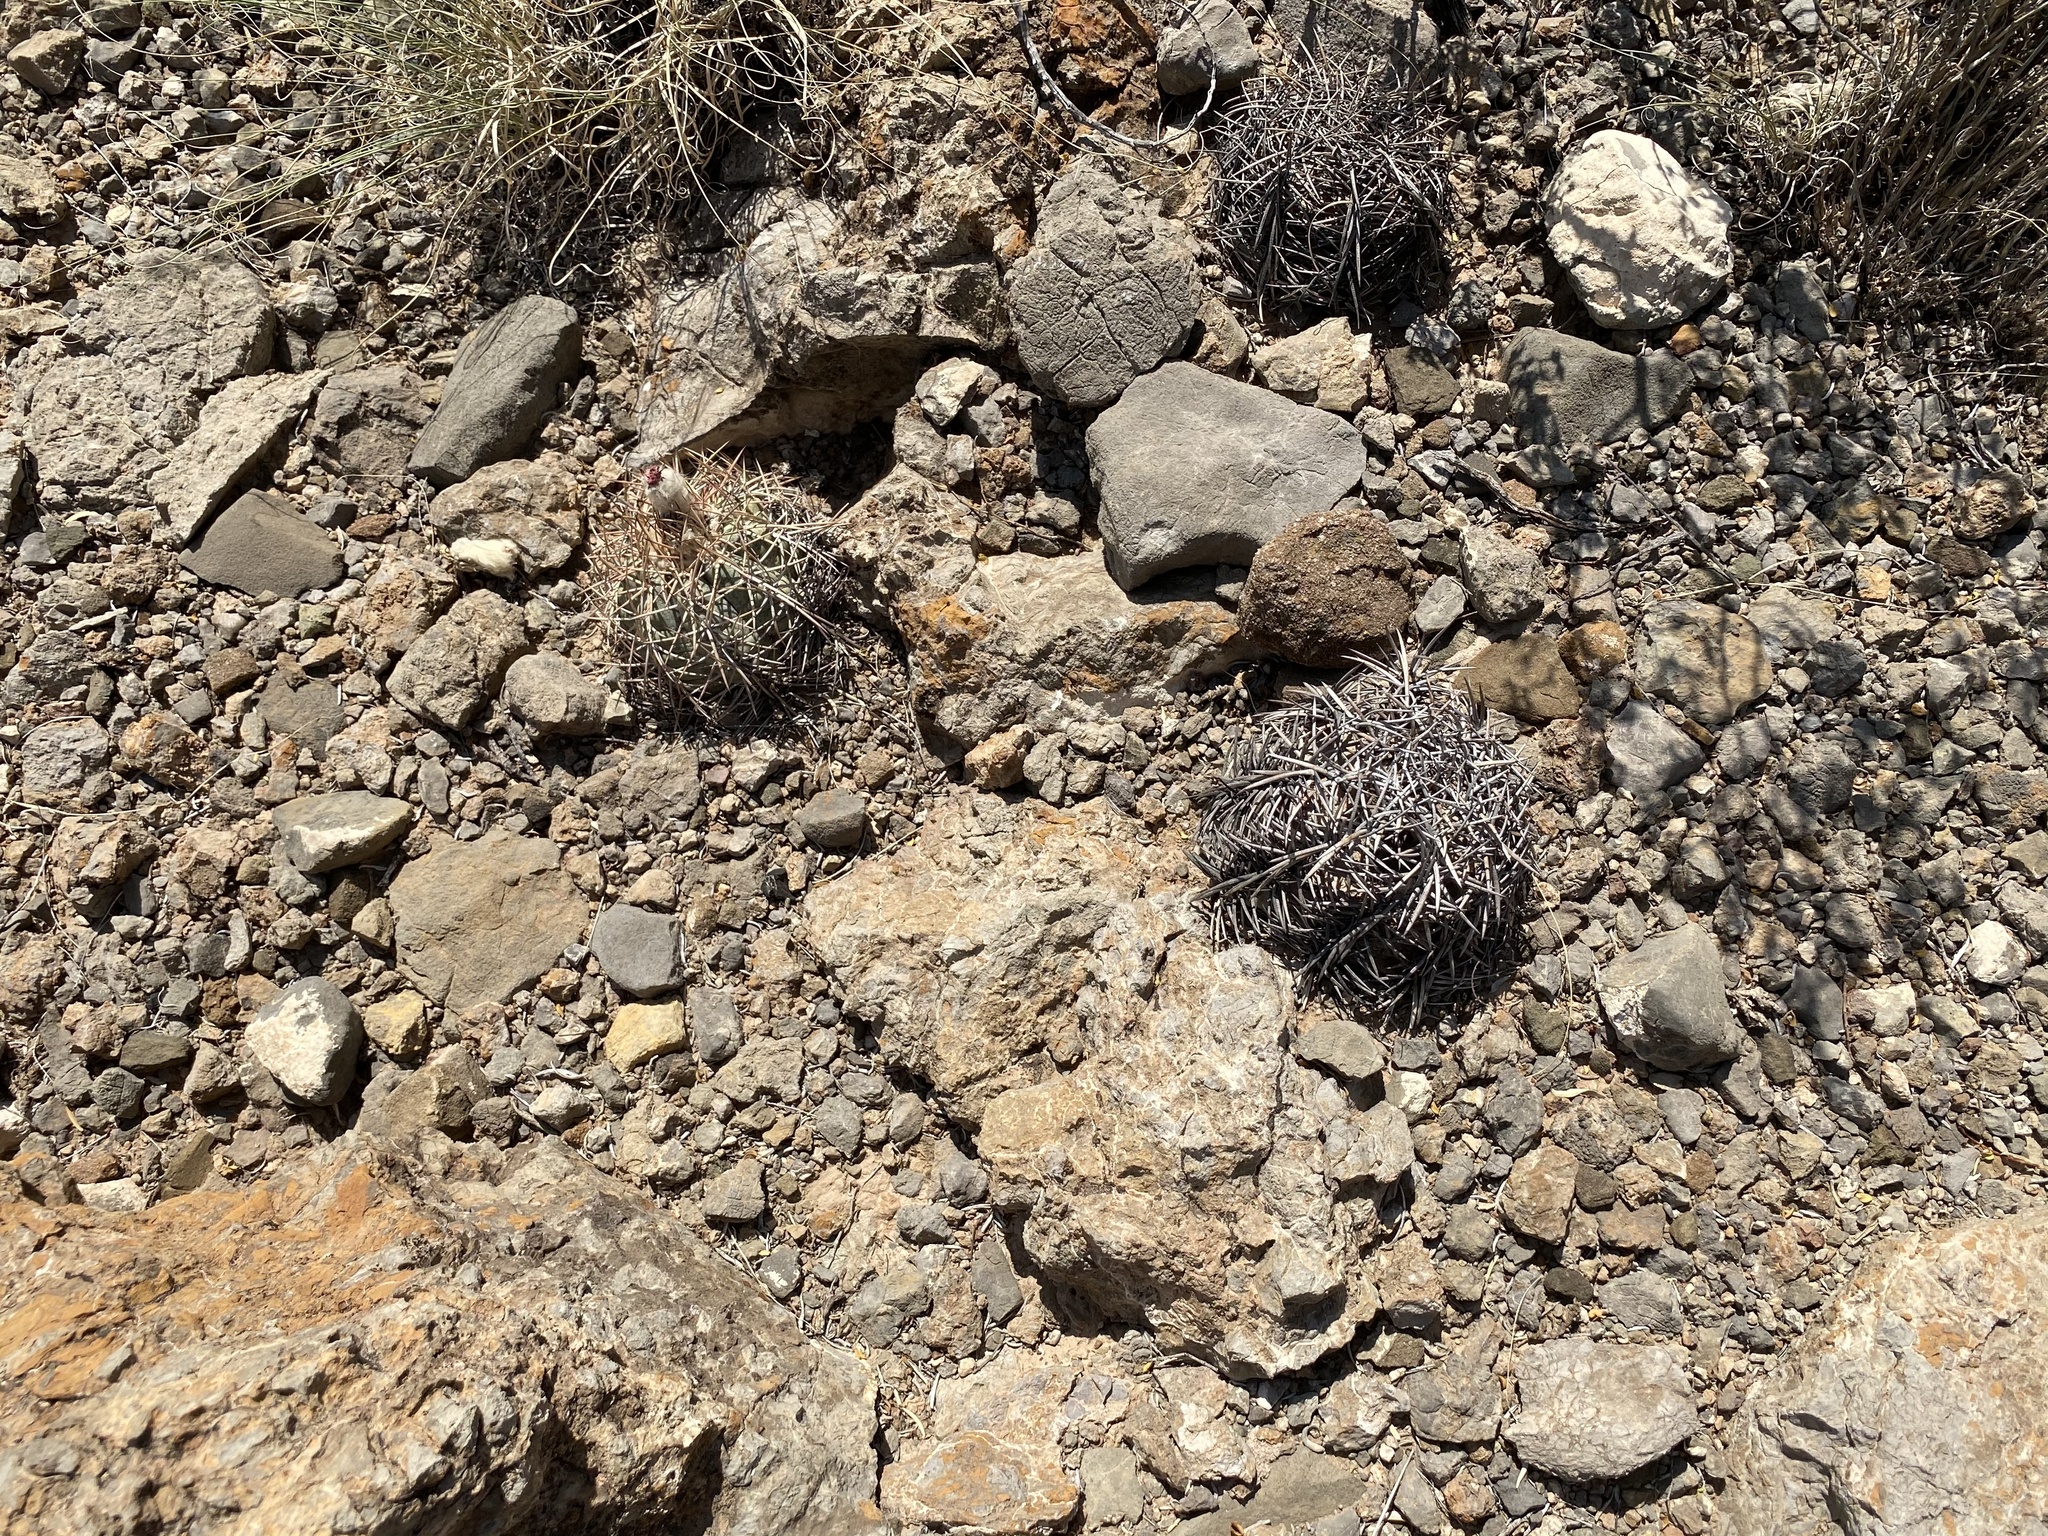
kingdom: Plantae
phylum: Tracheophyta
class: Magnoliopsida
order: Caryophyllales
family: Cactaceae
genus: Echinocactus
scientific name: Echinocactus horizonthalonius
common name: Devilshead
